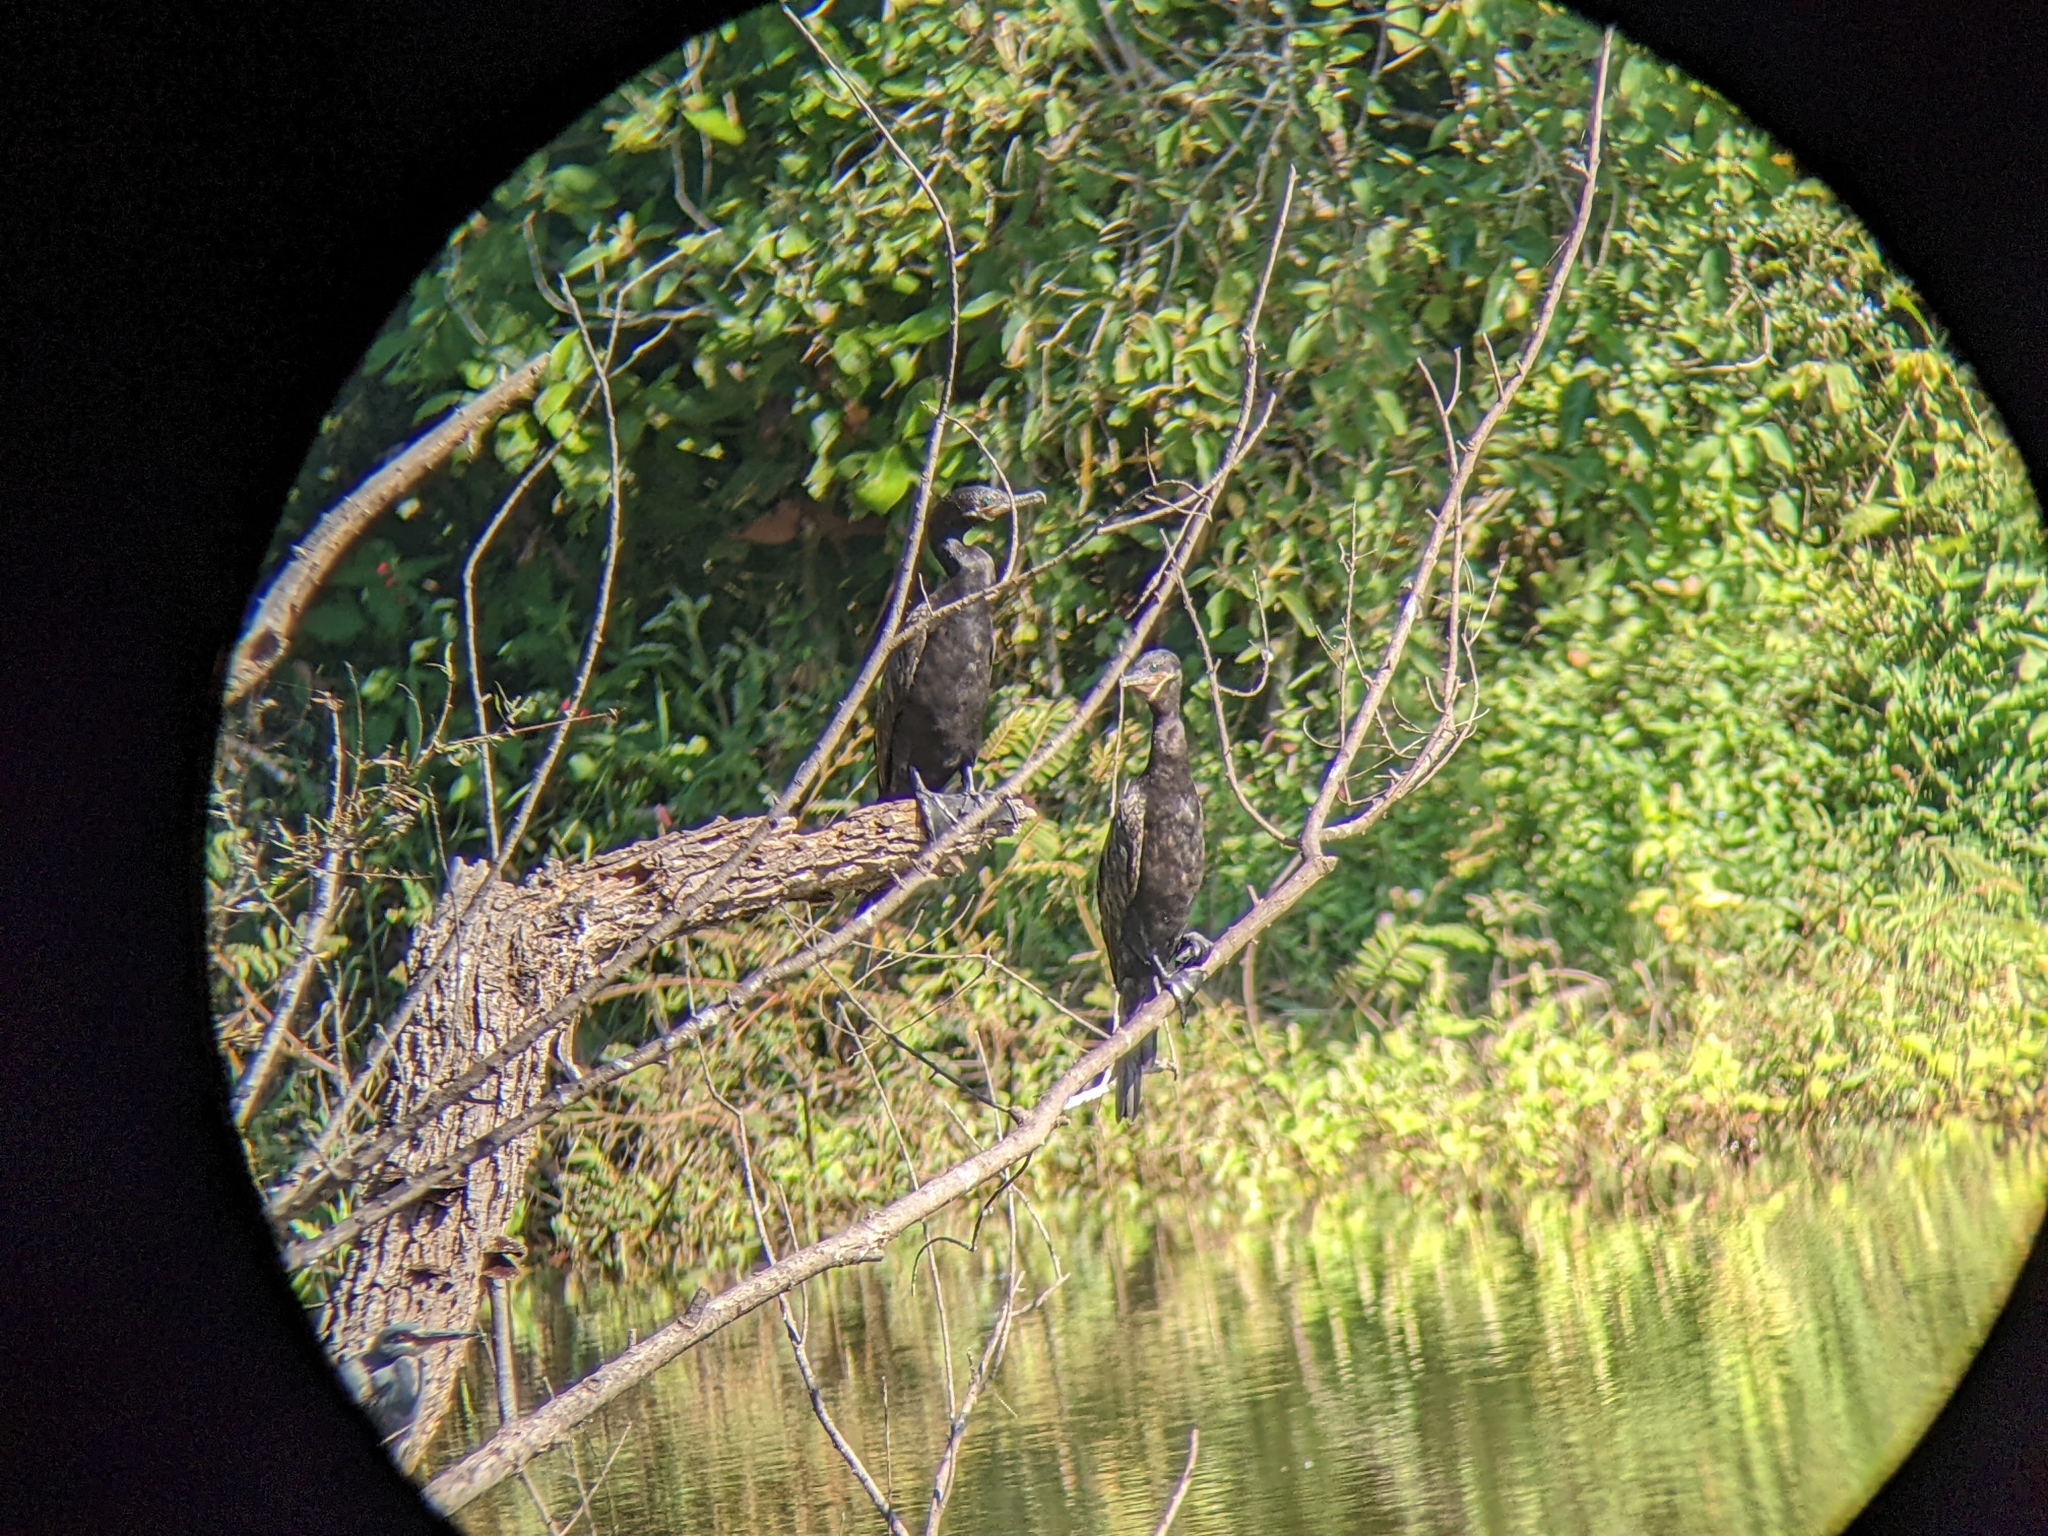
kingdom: Animalia
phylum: Chordata
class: Aves
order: Suliformes
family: Phalacrocoracidae
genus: Phalacrocorax
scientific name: Phalacrocorax brasilianus
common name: Neotropic cormorant
